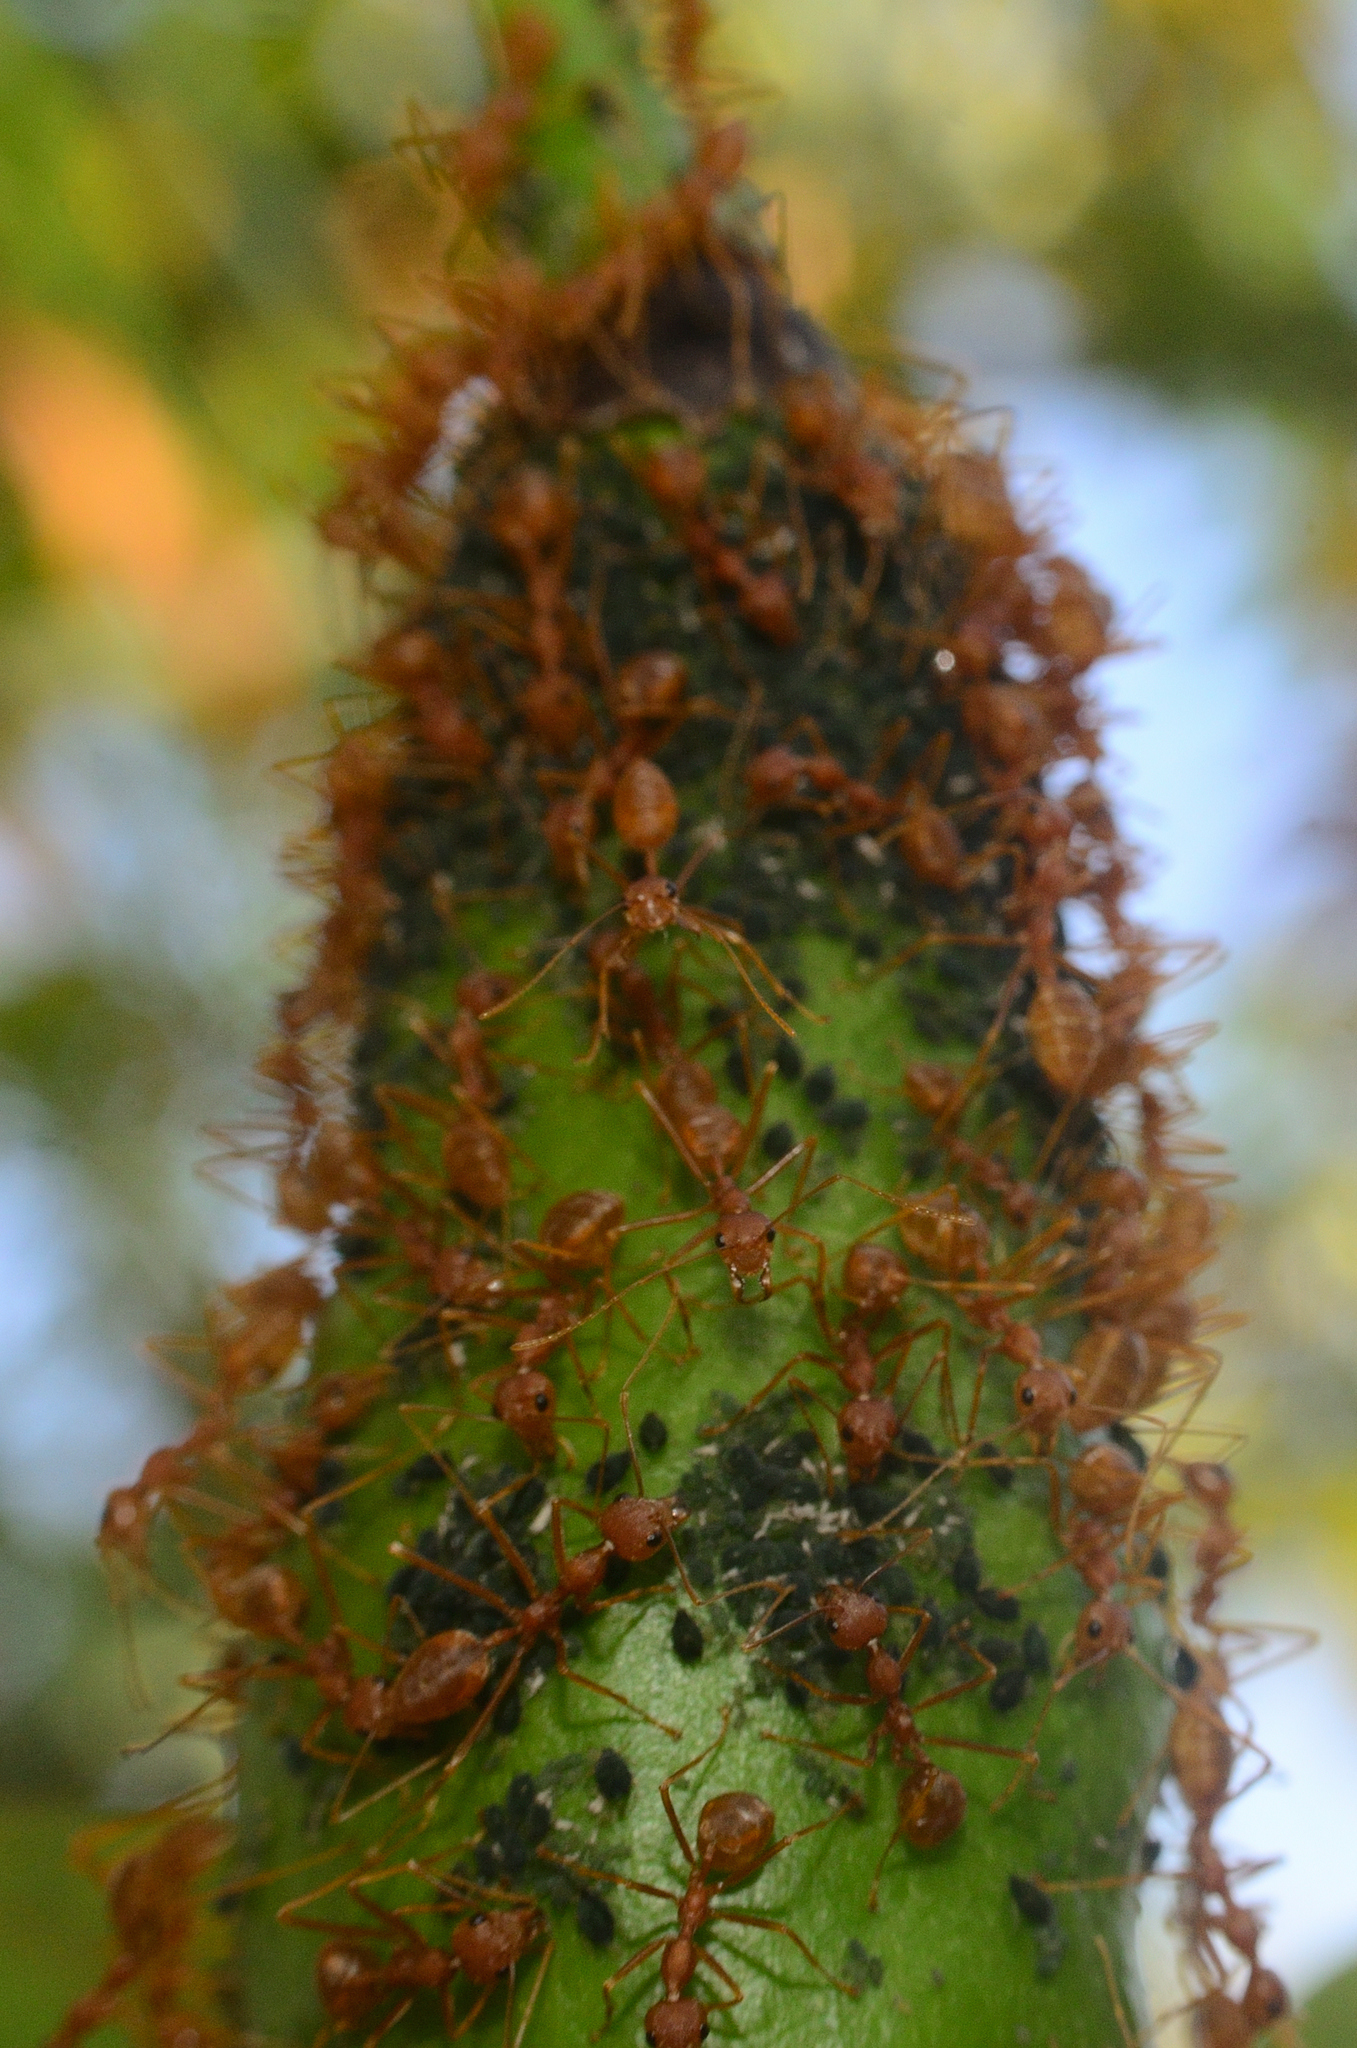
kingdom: Animalia
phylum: Arthropoda
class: Insecta
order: Hymenoptera
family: Formicidae
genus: Oecophylla
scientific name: Oecophylla smaragdina
